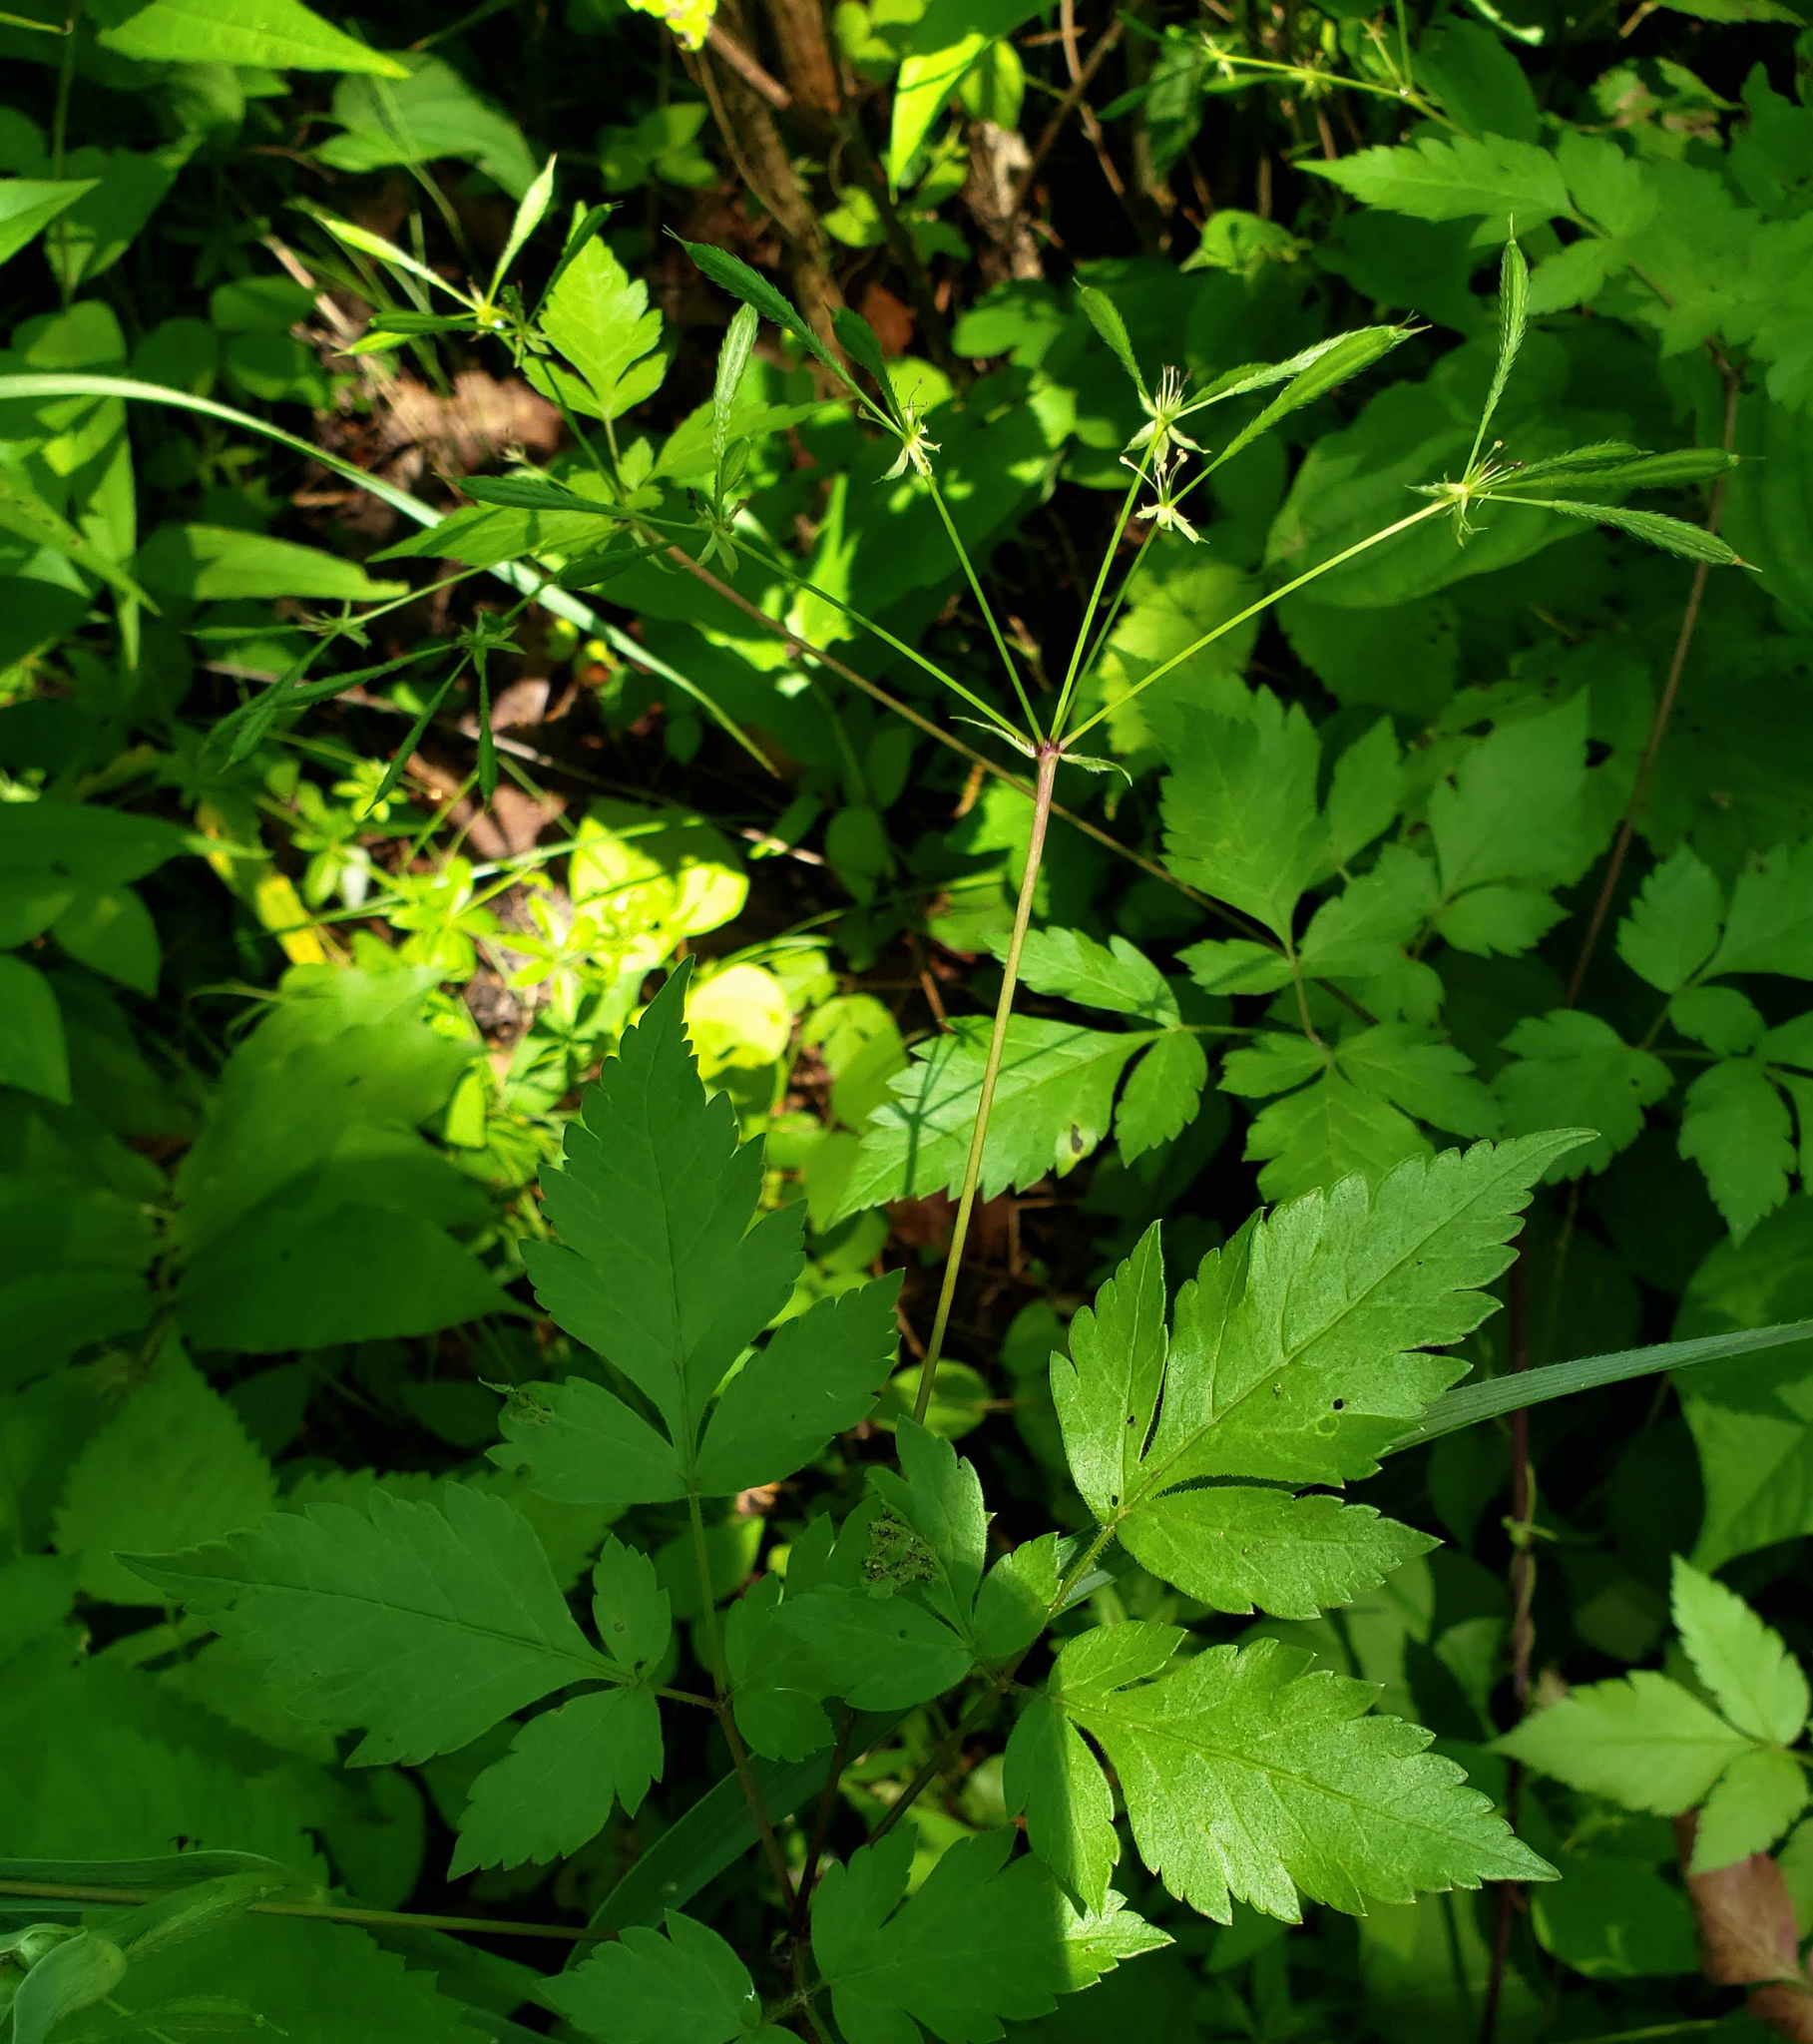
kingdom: Plantae
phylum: Tracheophyta
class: Magnoliopsida
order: Apiales
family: Apiaceae
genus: Osmorhiza
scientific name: Osmorhiza longistylis
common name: Smooth sweet cicely
